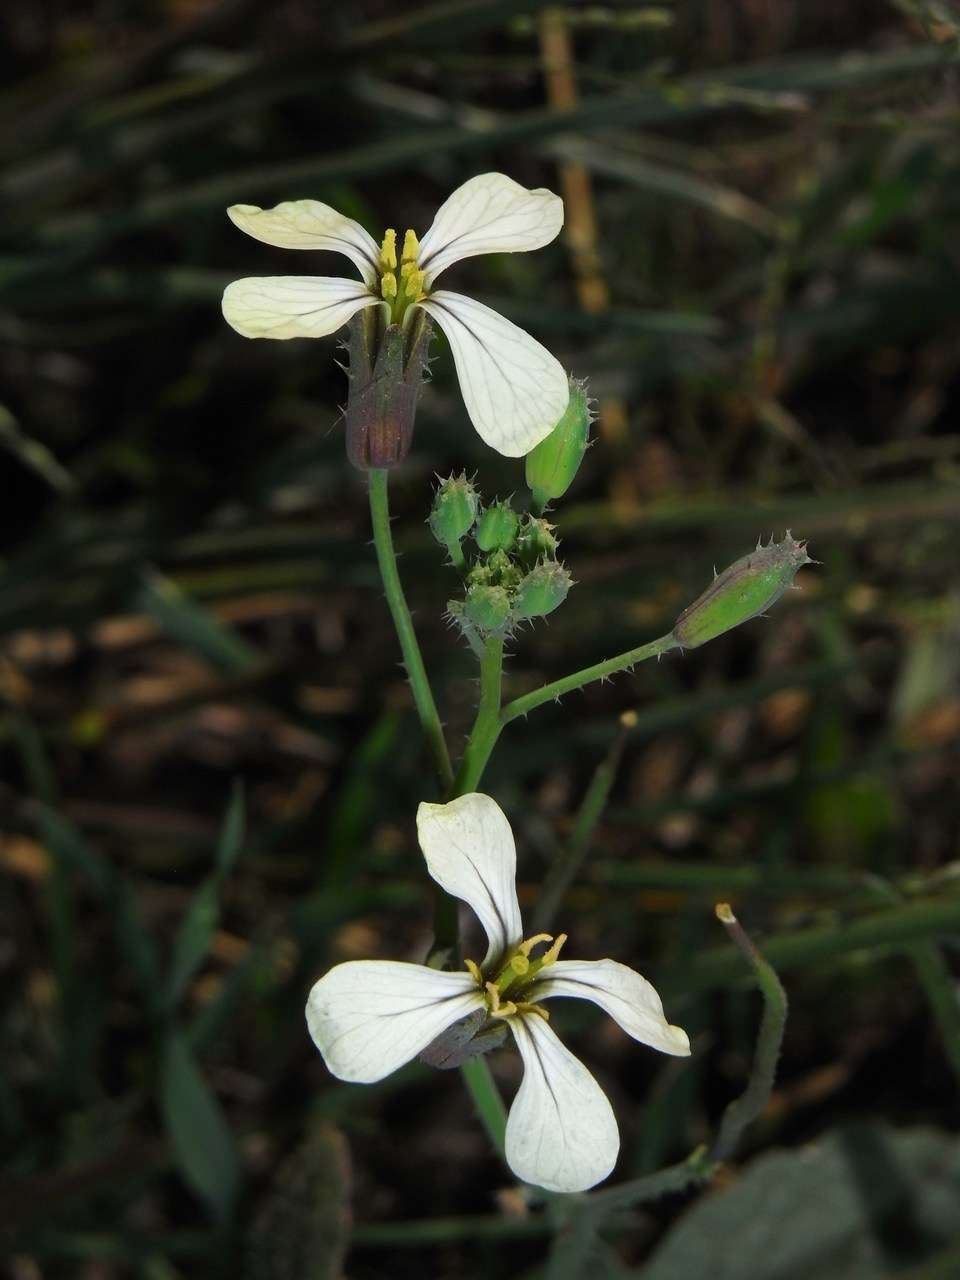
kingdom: Plantae
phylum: Tracheophyta
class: Magnoliopsida
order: Brassicales
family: Brassicaceae
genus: Raphanus
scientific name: Raphanus raphanistrum
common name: Wild radish
